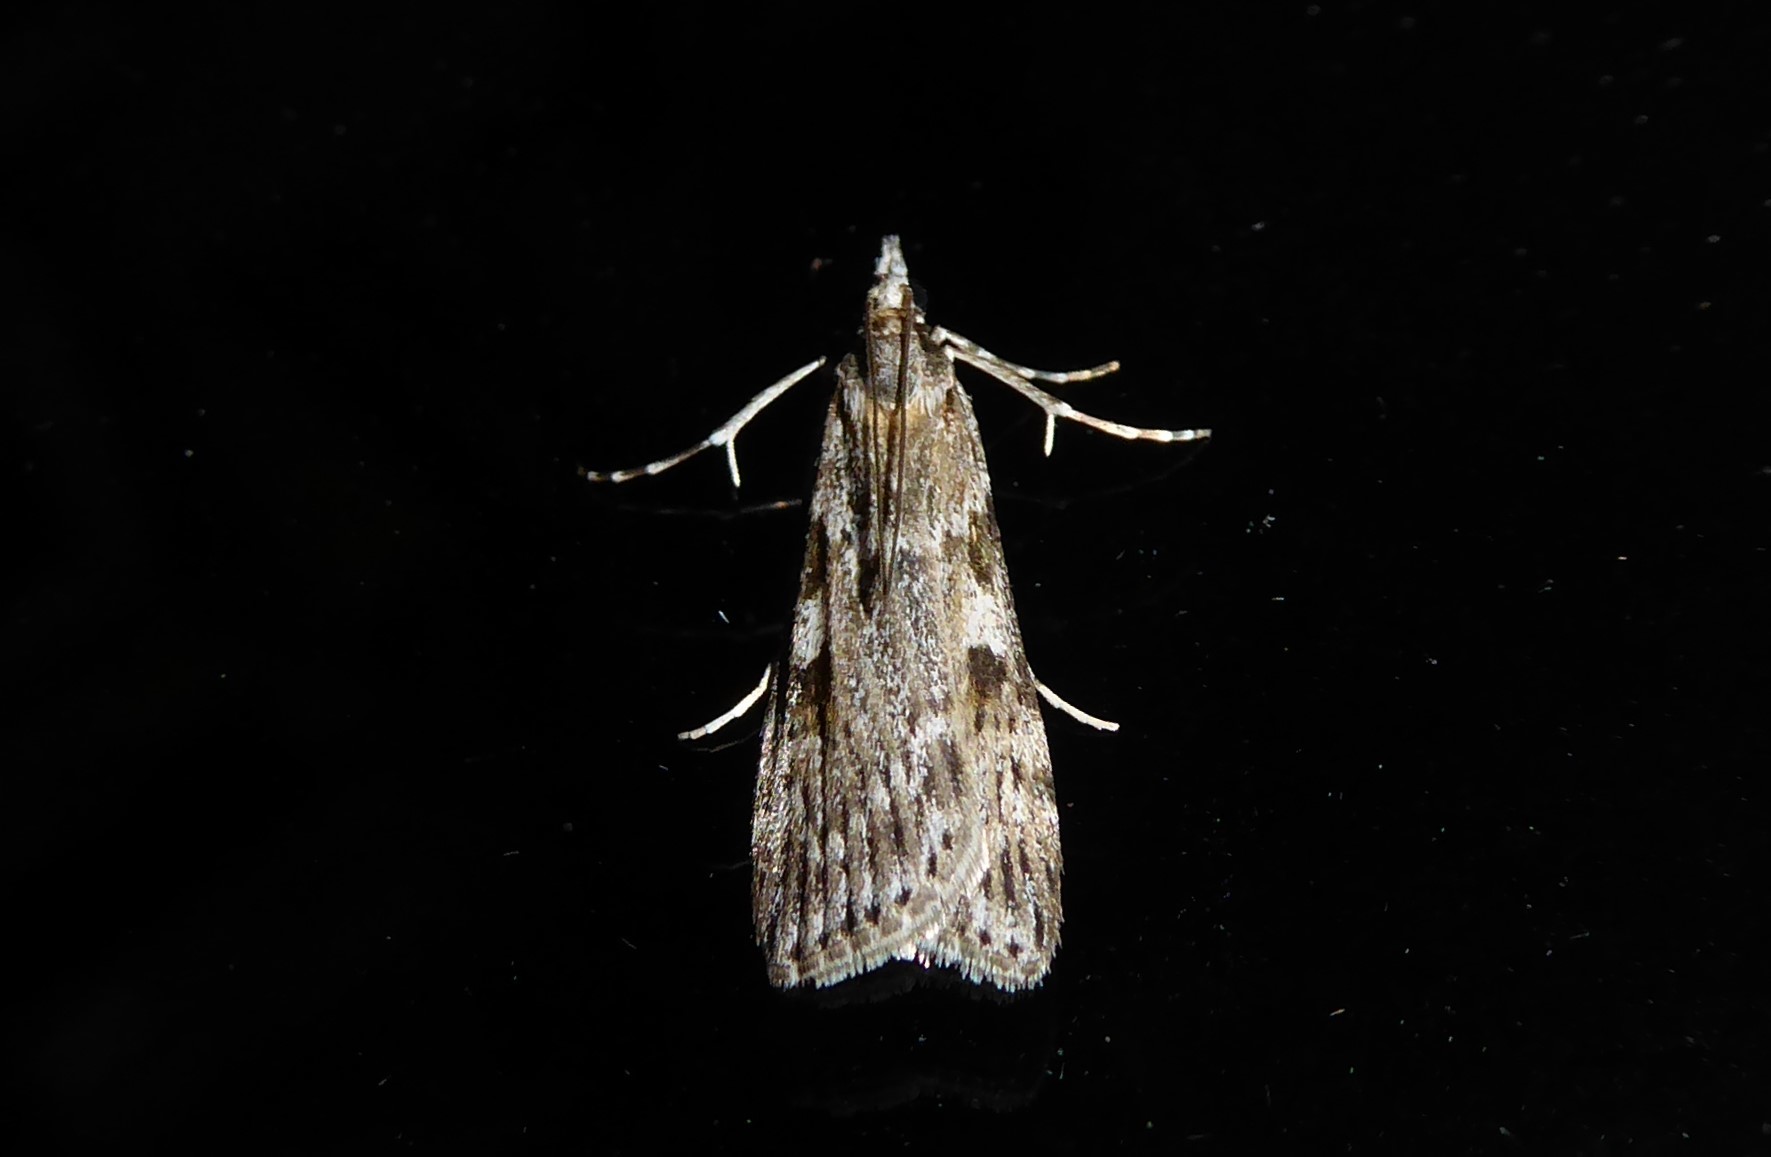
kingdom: Animalia
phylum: Arthropoda
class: Insecta
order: Lepidoptera
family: Crambidae
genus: Scoparia
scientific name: Scoparia halopis
